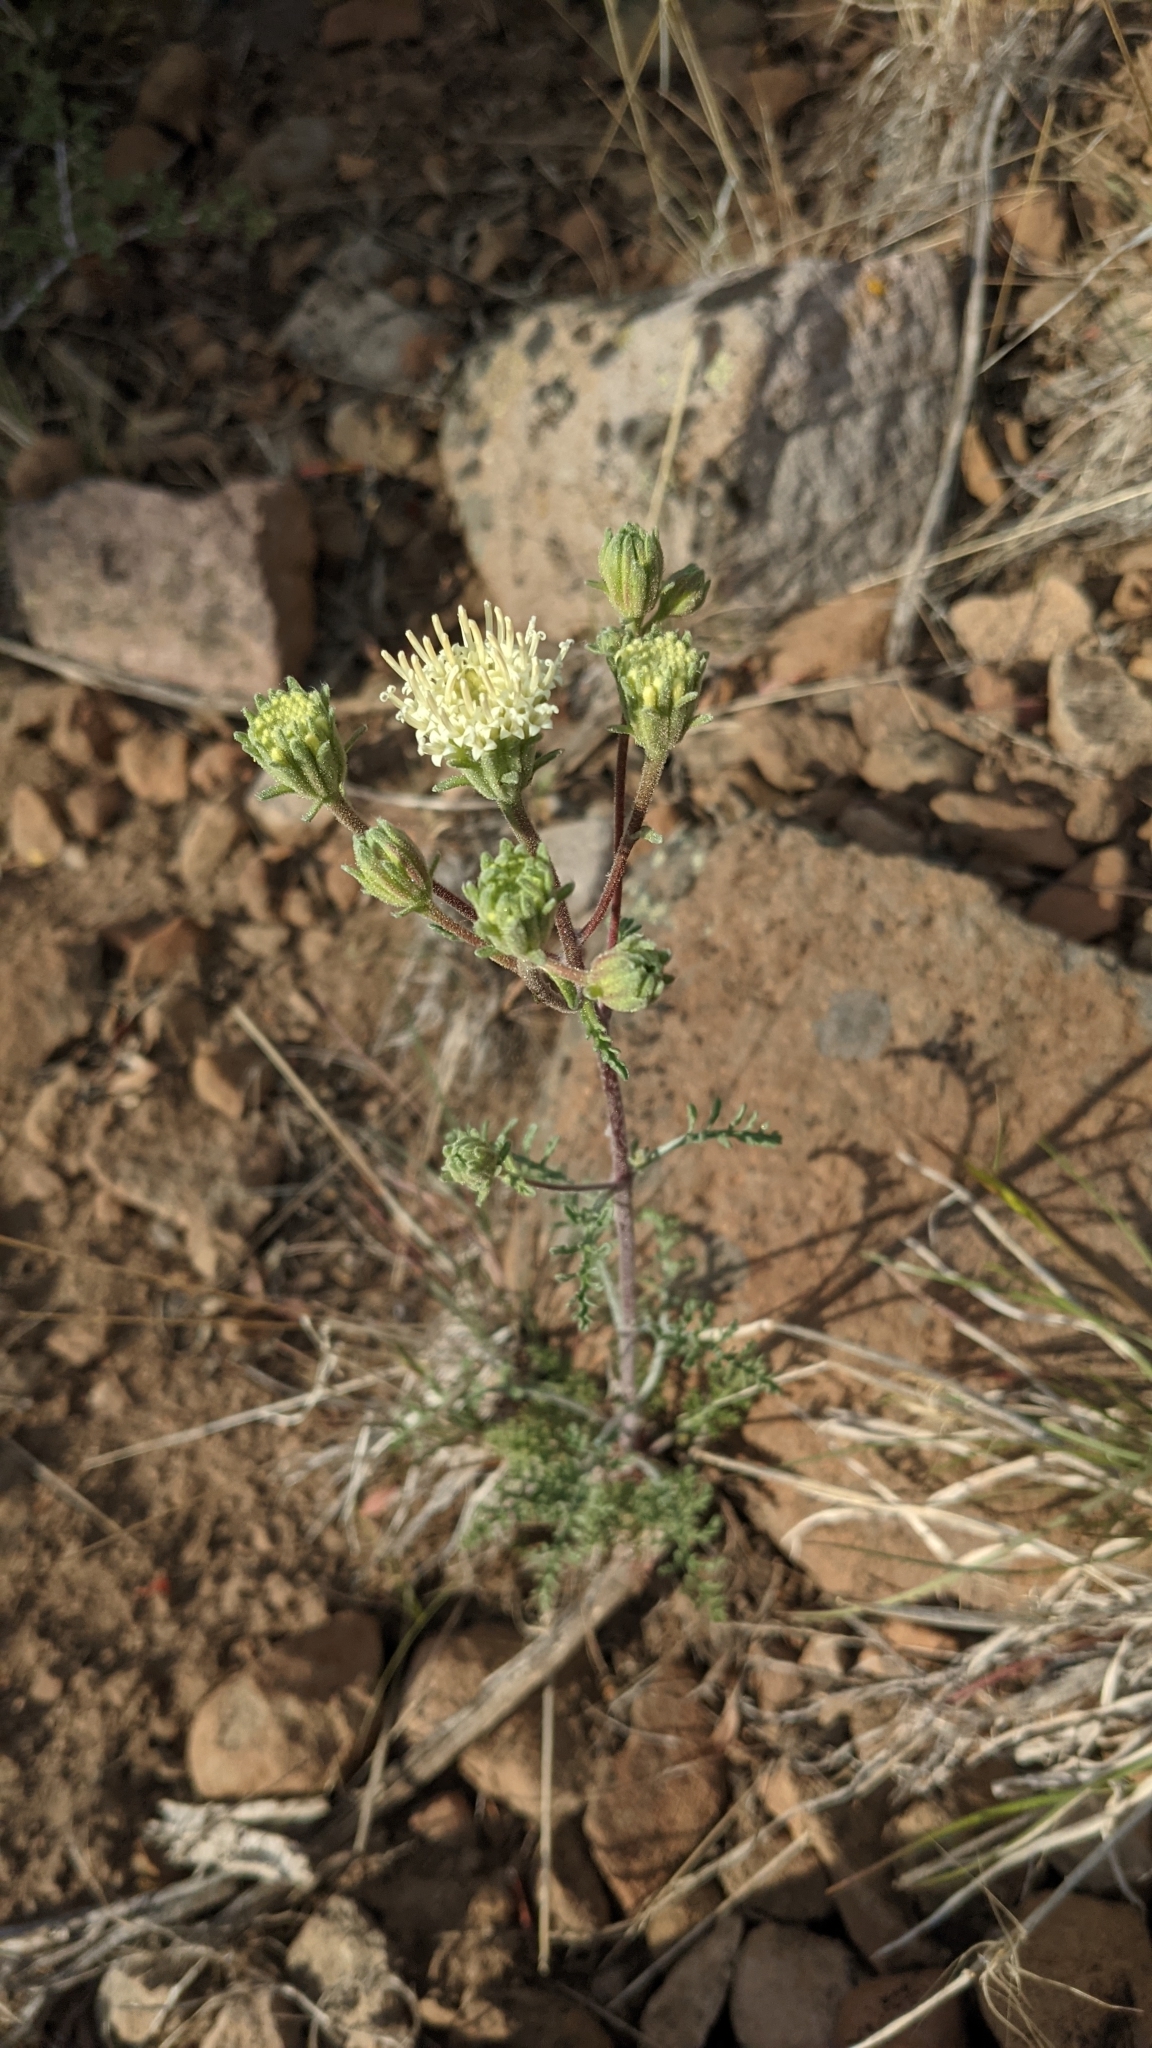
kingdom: Plantae
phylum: Tracheophyta
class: Magnoliopsida
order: Asterales
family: Asteraceae
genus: Chaenactis
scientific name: Chaenactis douglasii
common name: Hoary pincushion
